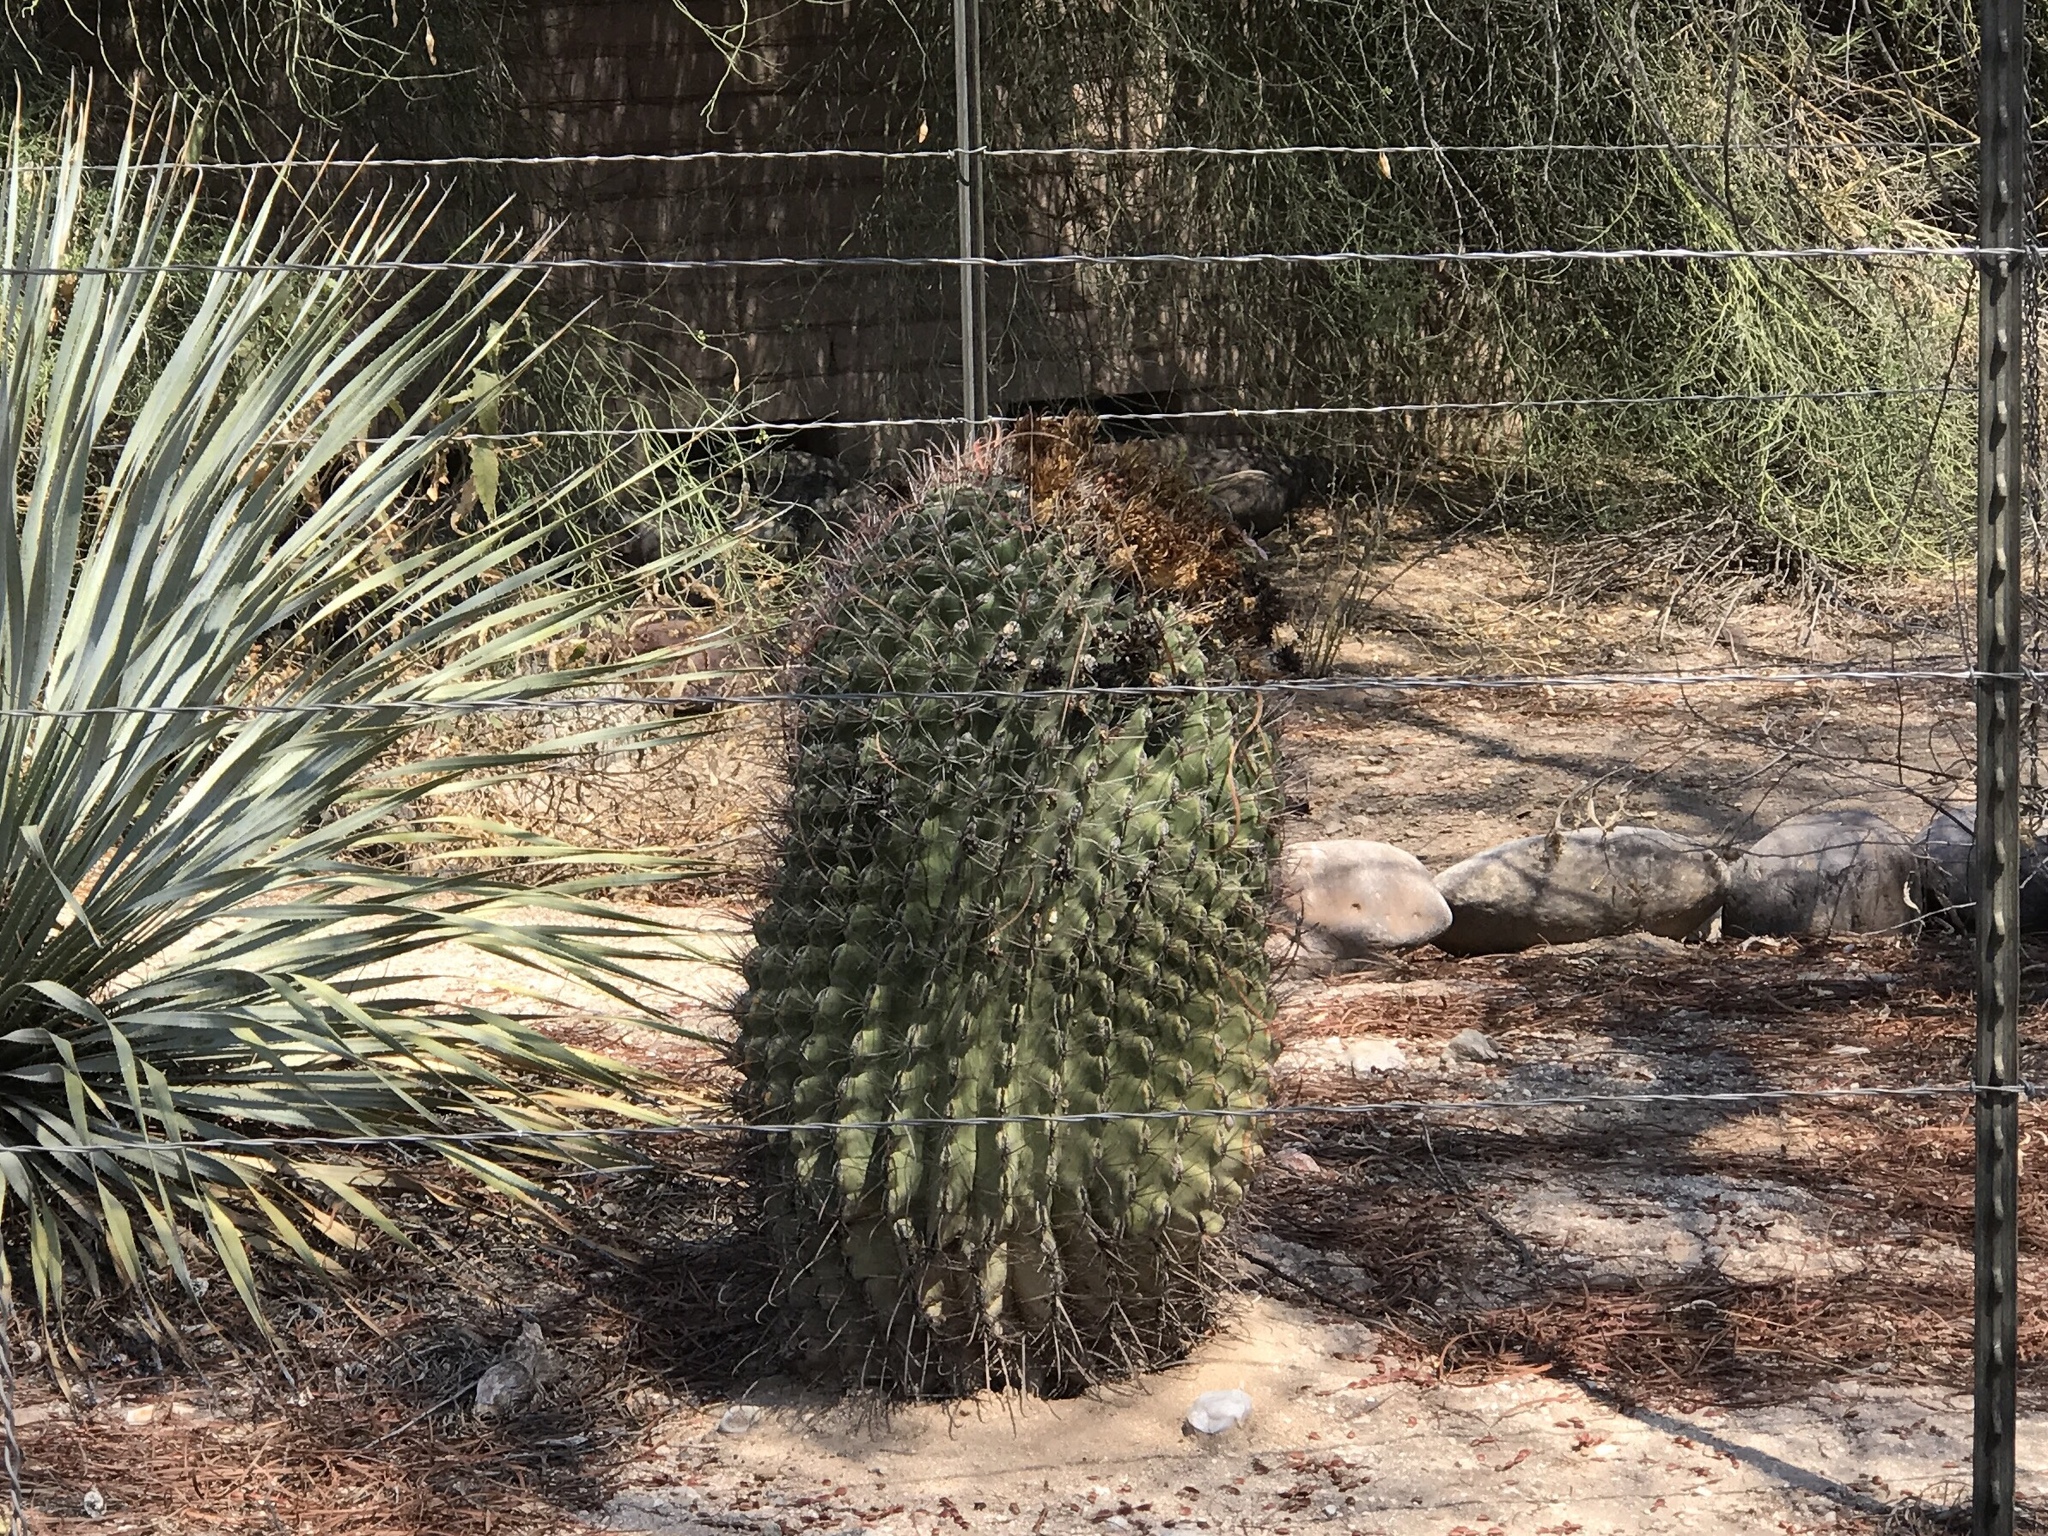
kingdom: Plantae
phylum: Tracheophyta
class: Magnoliopsida
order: Caryophyllales
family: Cactaceae
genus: Ferocactus
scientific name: Ferocactus wislizeni
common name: Candy barrel cactus
